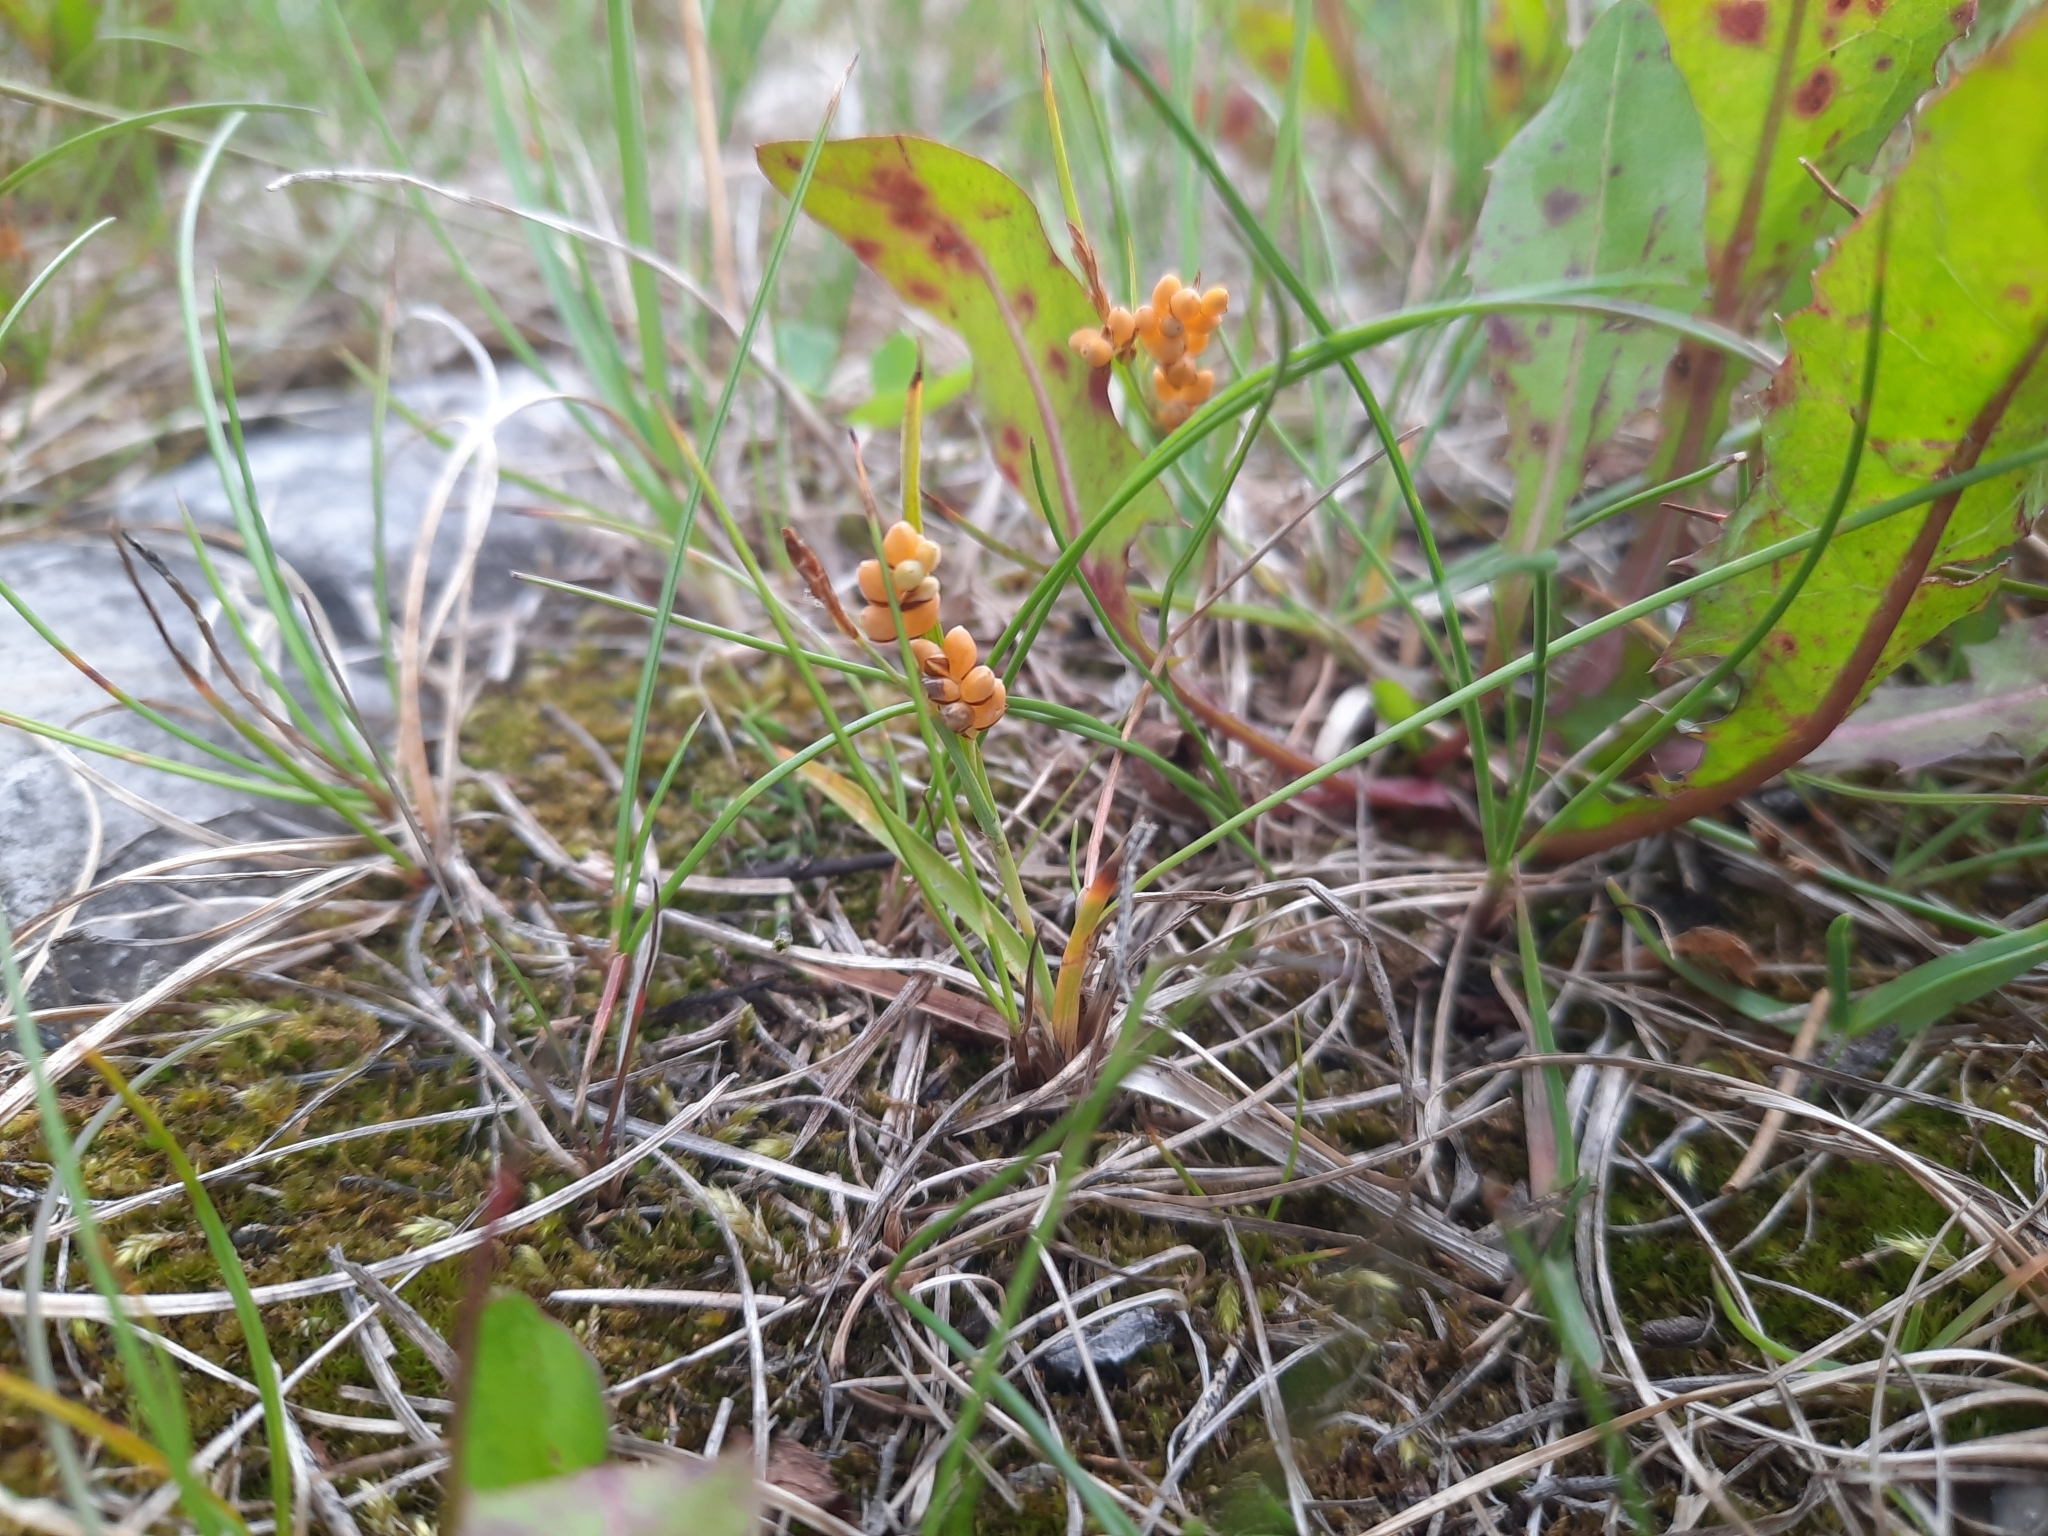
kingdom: Plantae
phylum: Tracheophyta
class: Liliopsida
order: Poales
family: Cyperaceae
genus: Carex
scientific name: Carex aurea
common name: Golden sedge
